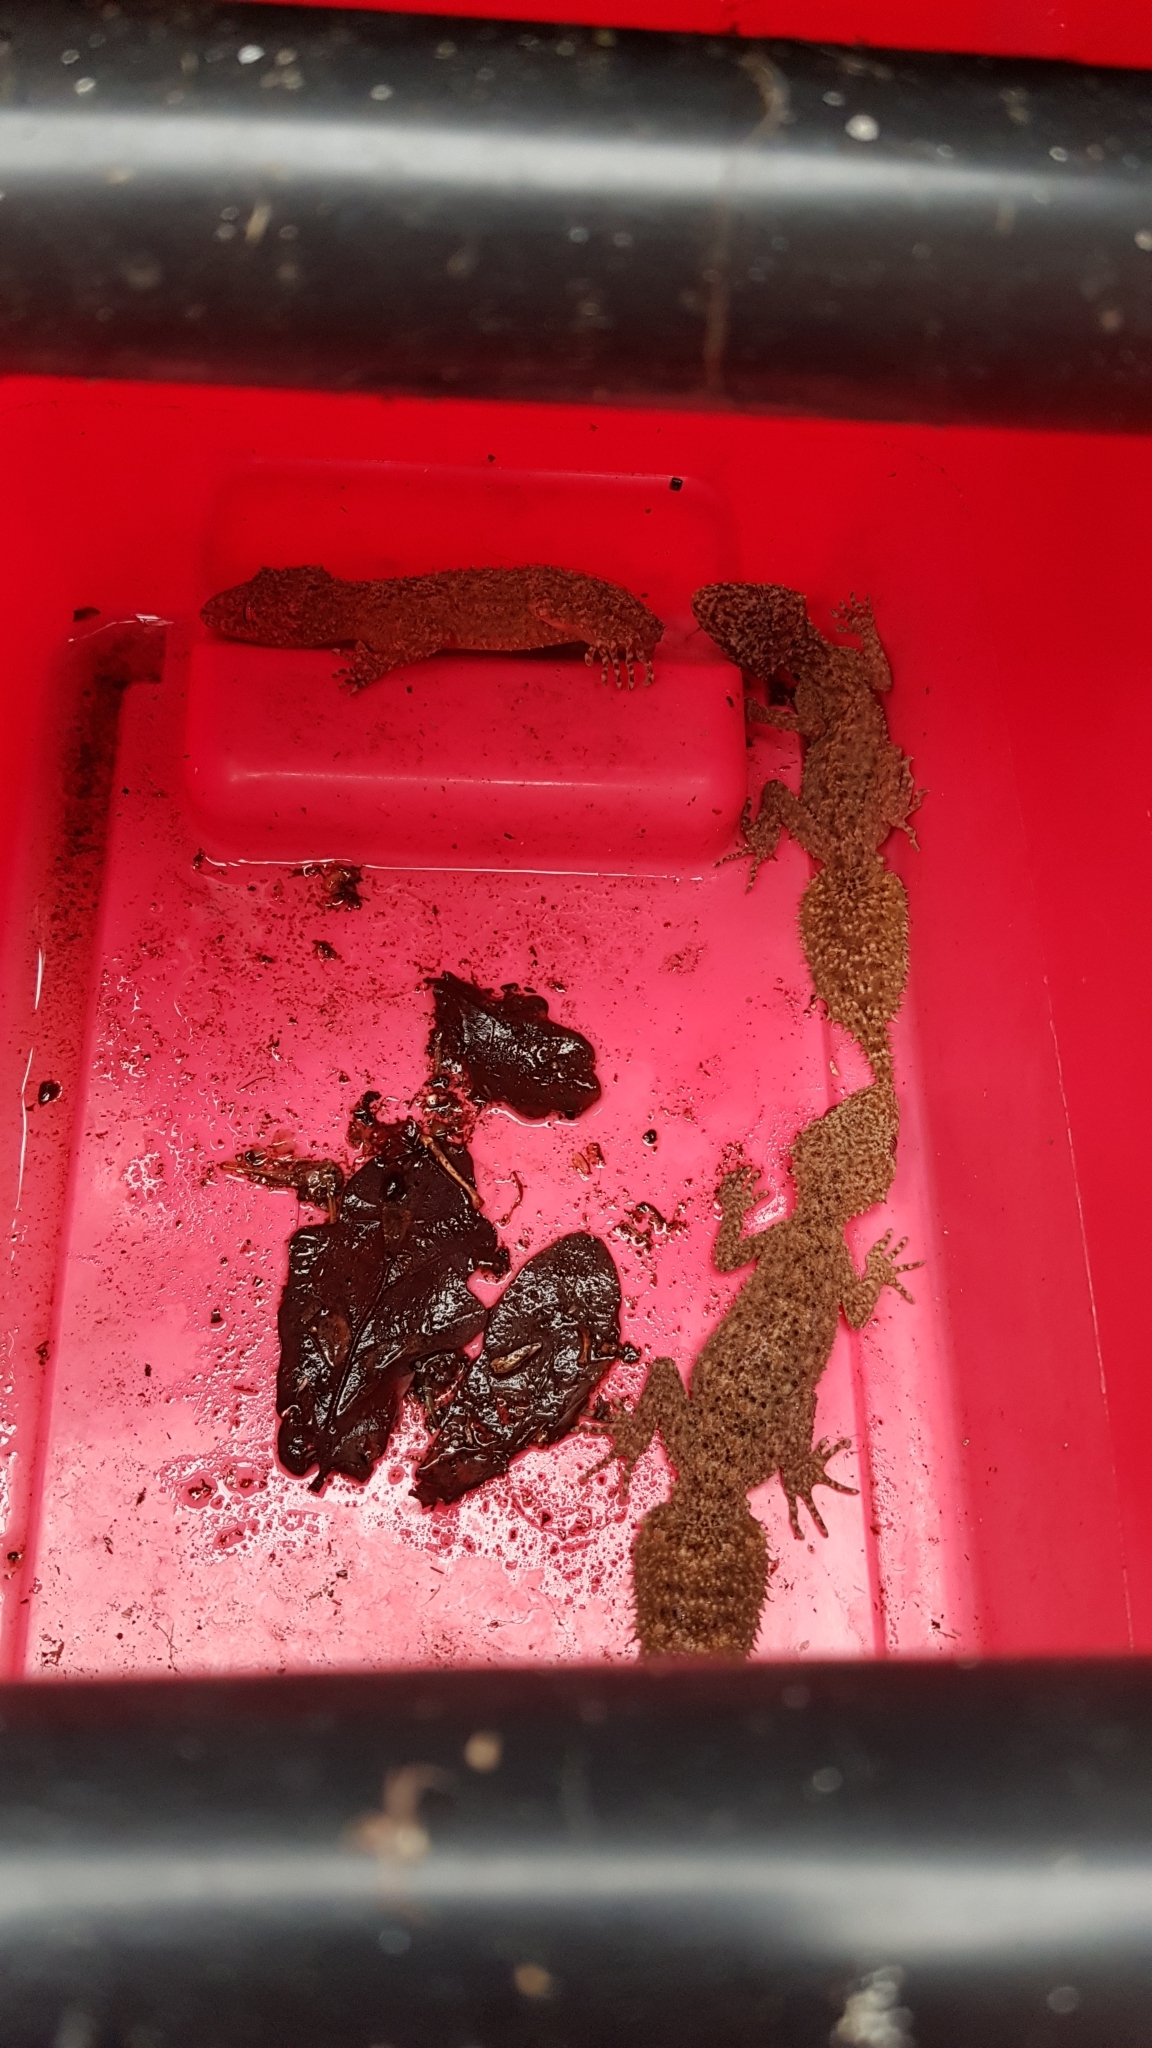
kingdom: Animalia
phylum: Chordata
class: Squamata
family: Carphodactylidae
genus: Phyllurus
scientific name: Phyllurus platurus
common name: Broad-tailed gecko
